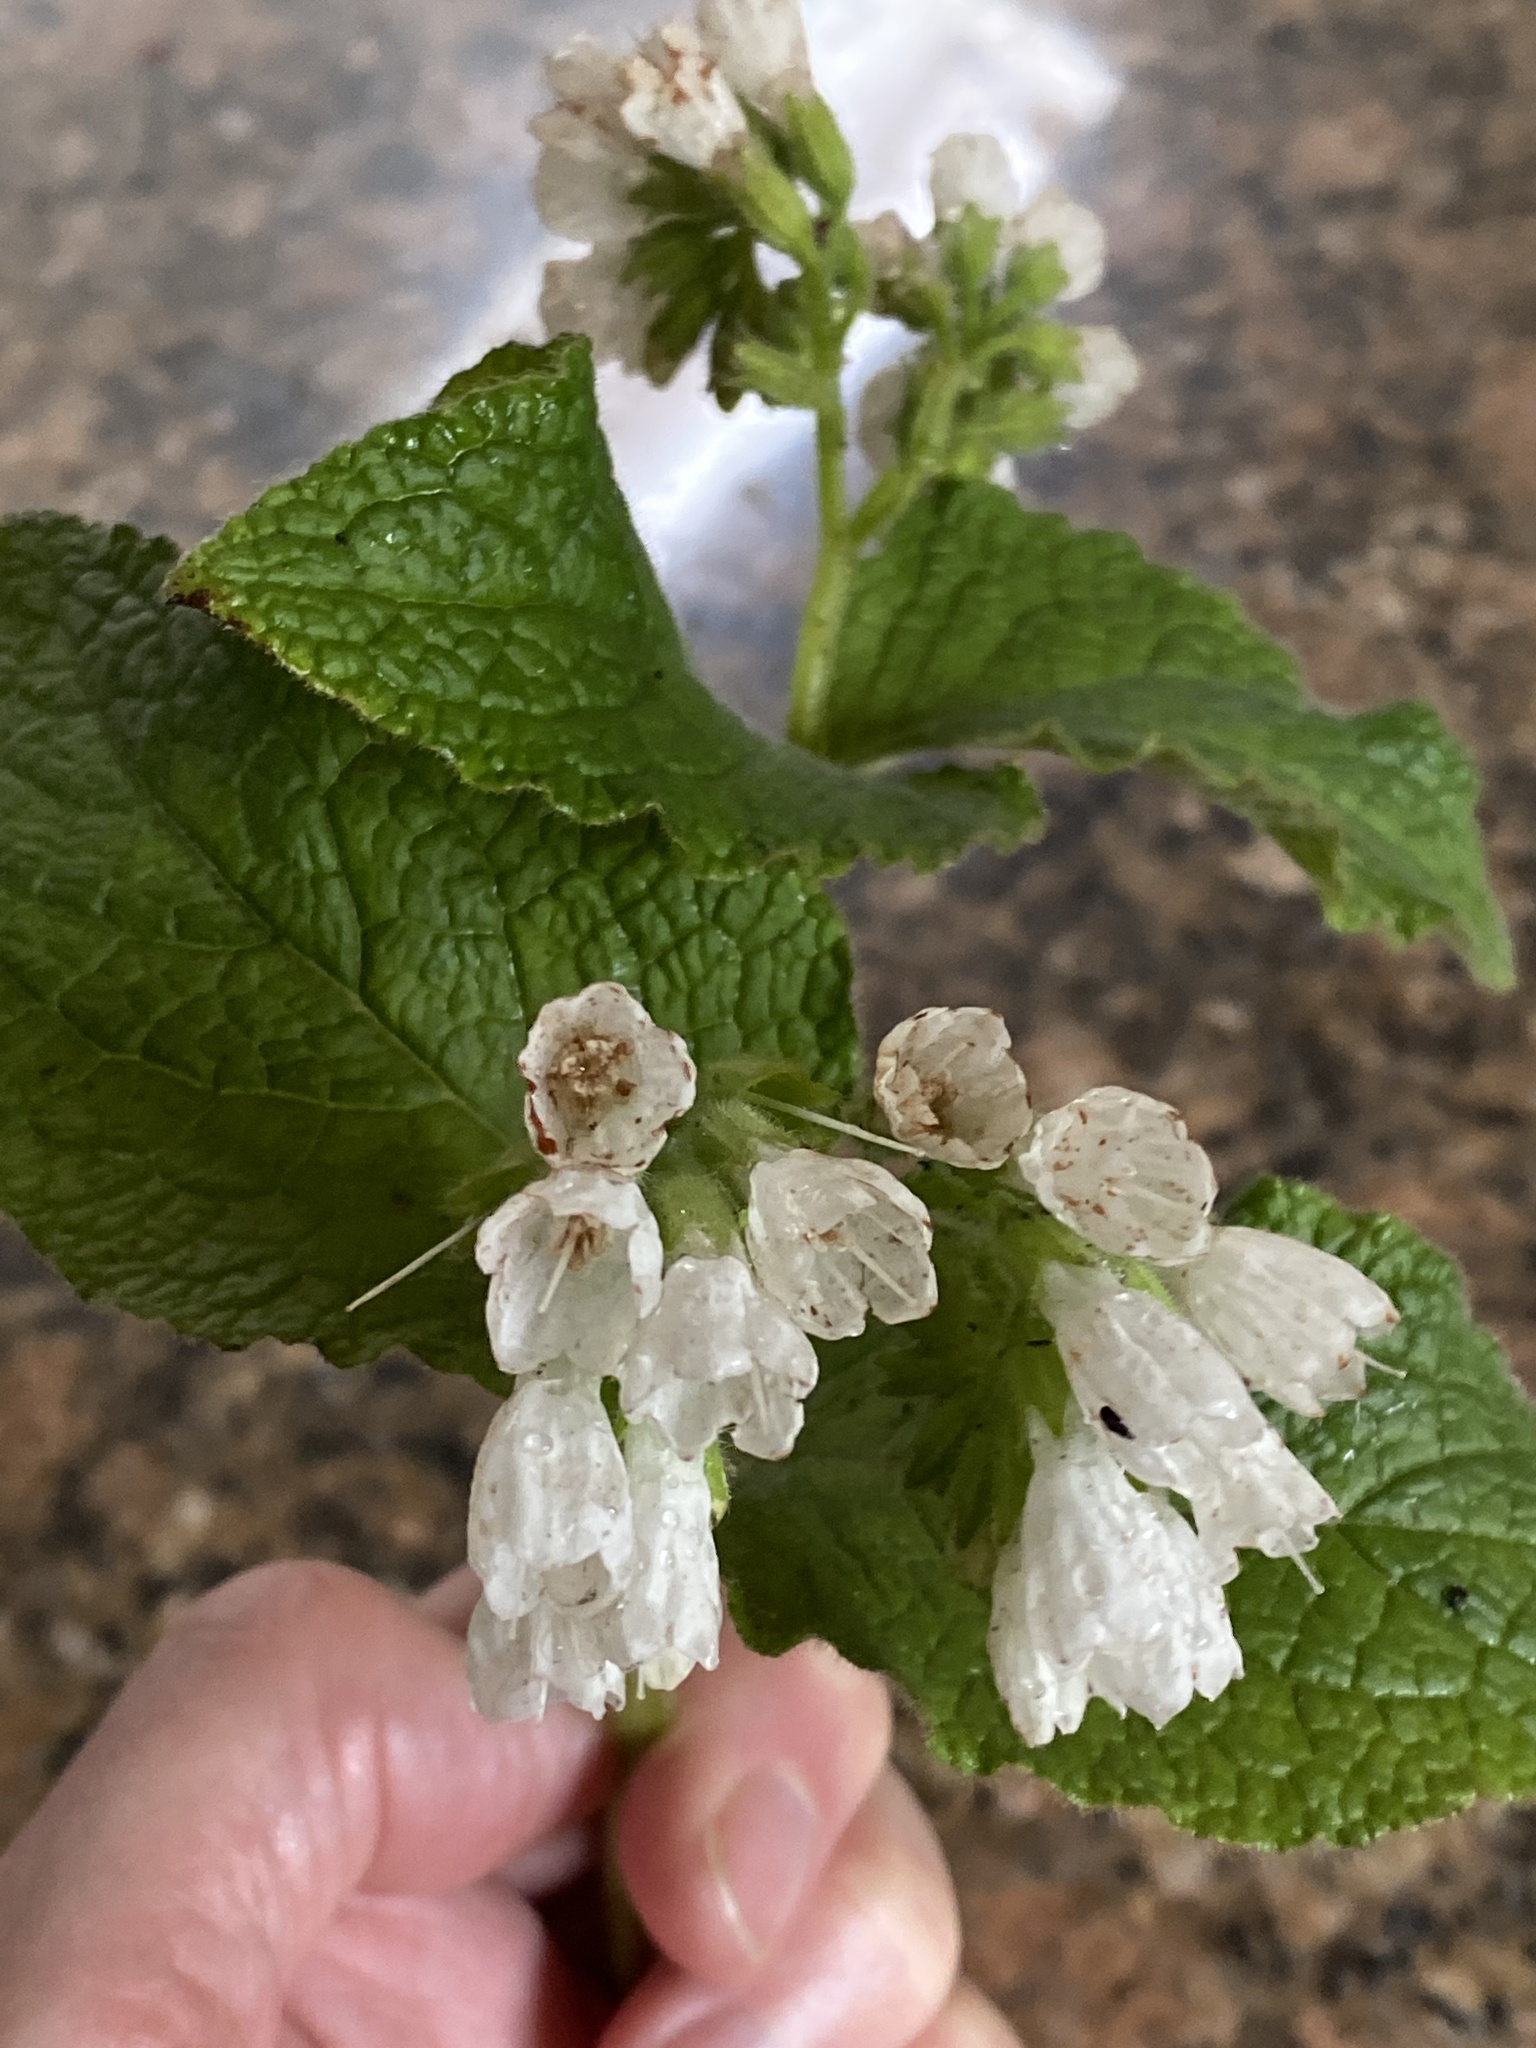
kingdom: Plantae
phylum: Tracheophyta
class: Magnoliopsida
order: Boraginales
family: Boraginaceae
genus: Symphytum
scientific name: Symphytum orientale
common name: White comfrey
